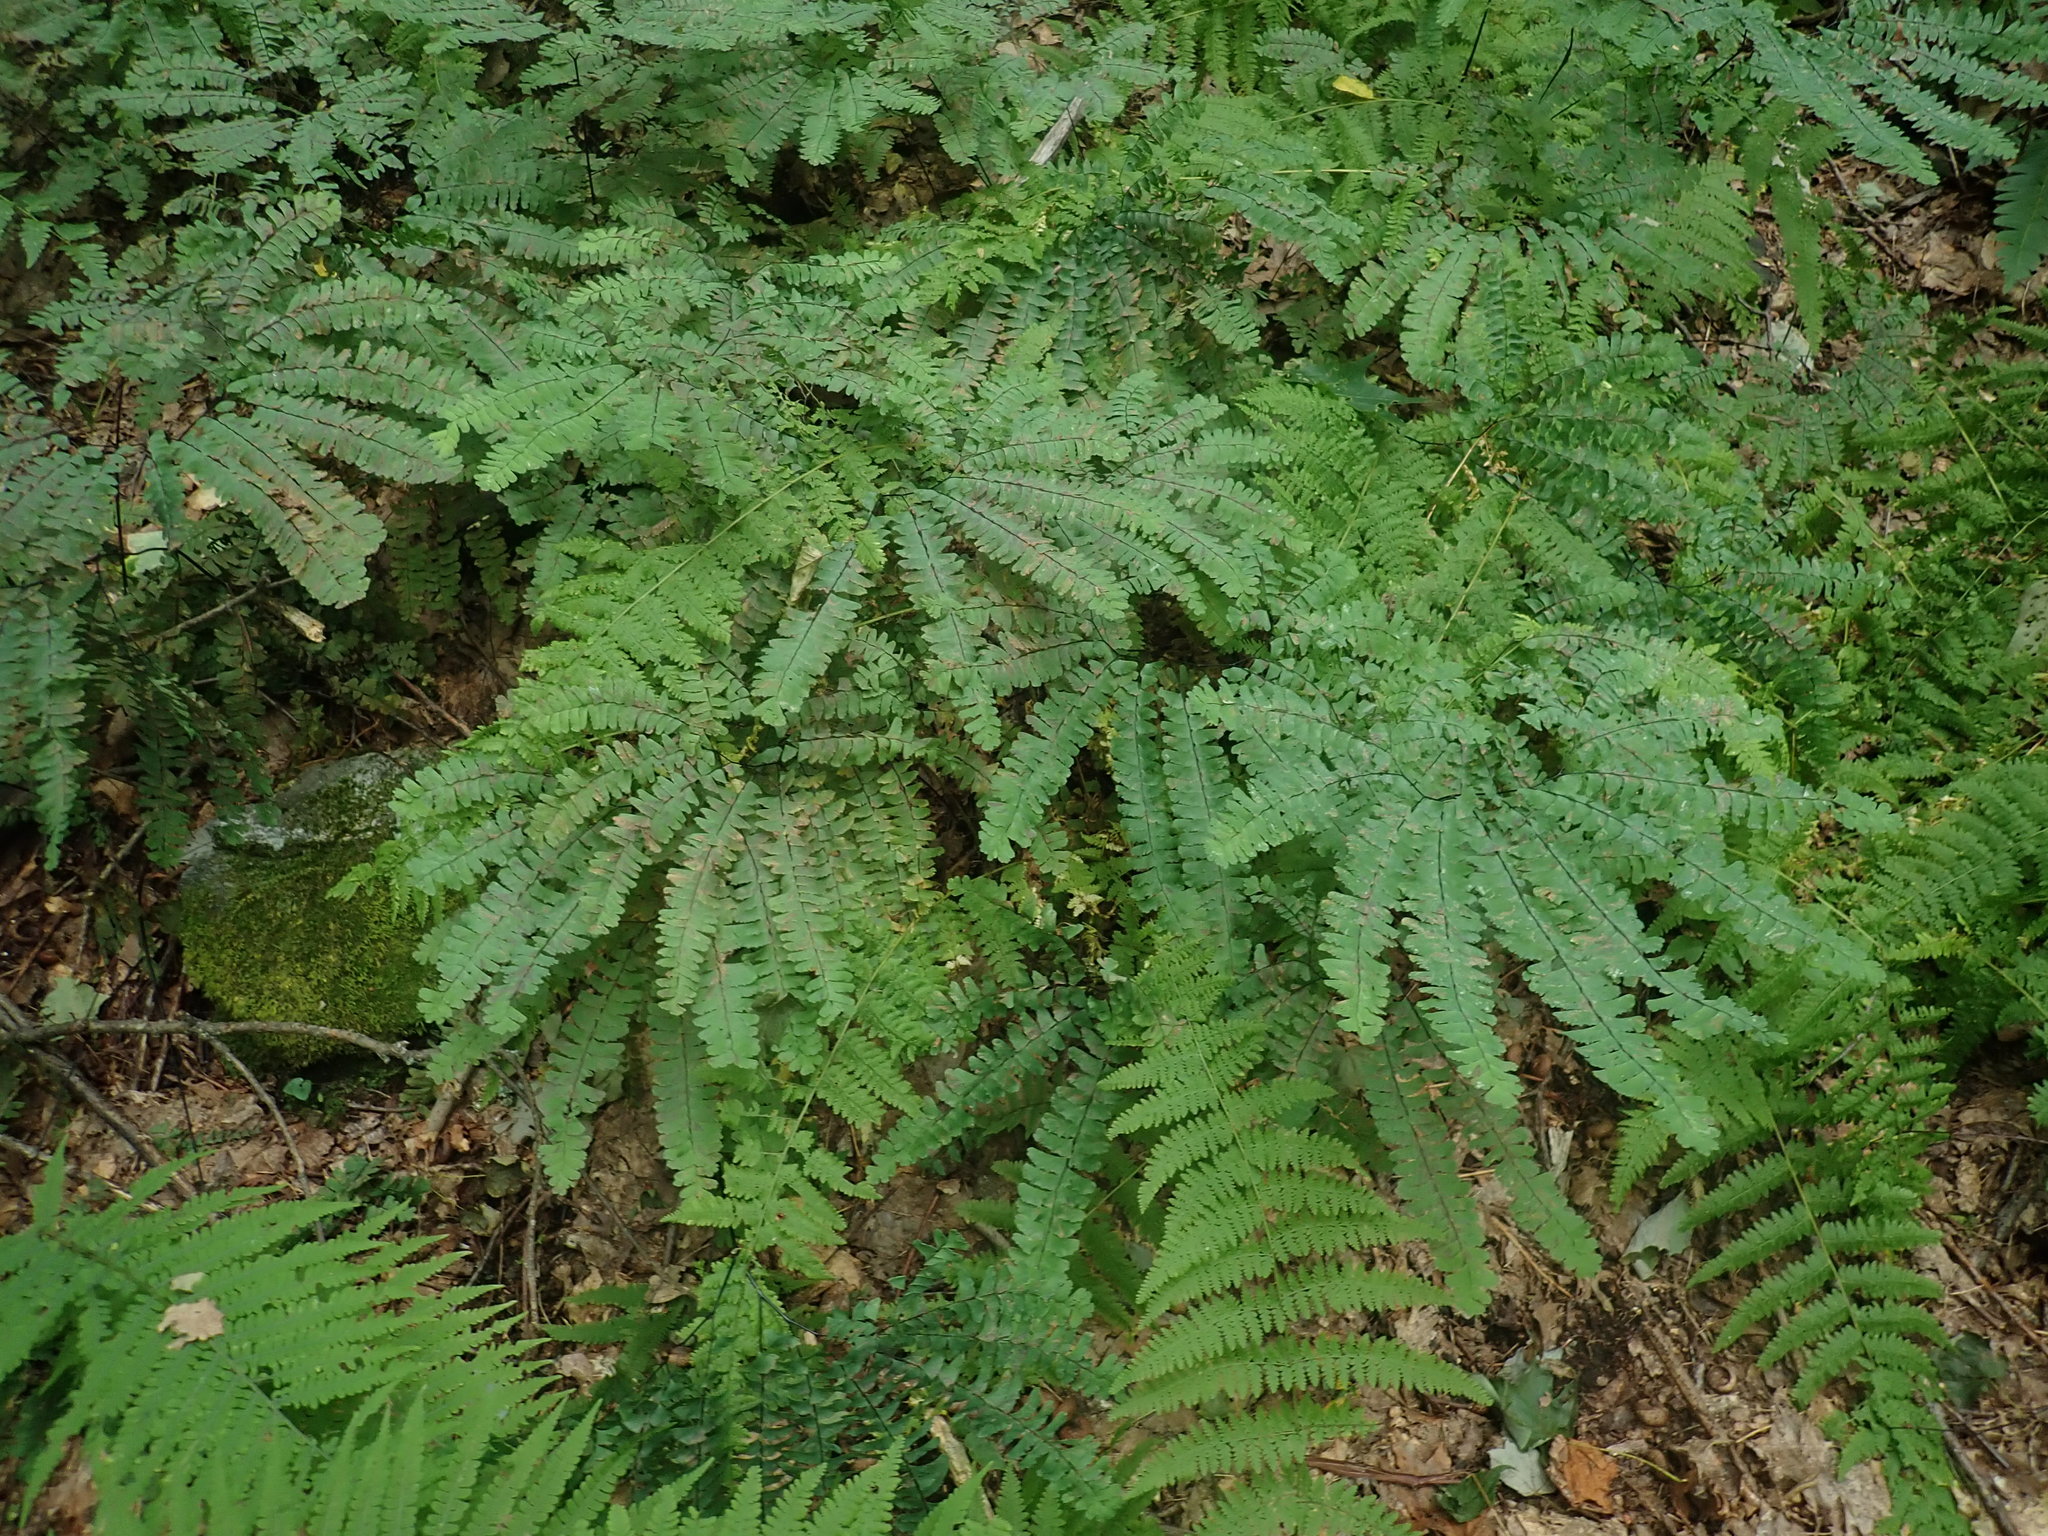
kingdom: Plantae
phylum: Tracheophyta
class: Polypodiopsida
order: Polypodiales
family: Pteridaceae
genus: Adiantum
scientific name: Adiantum pedatum
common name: Five-finger fern
